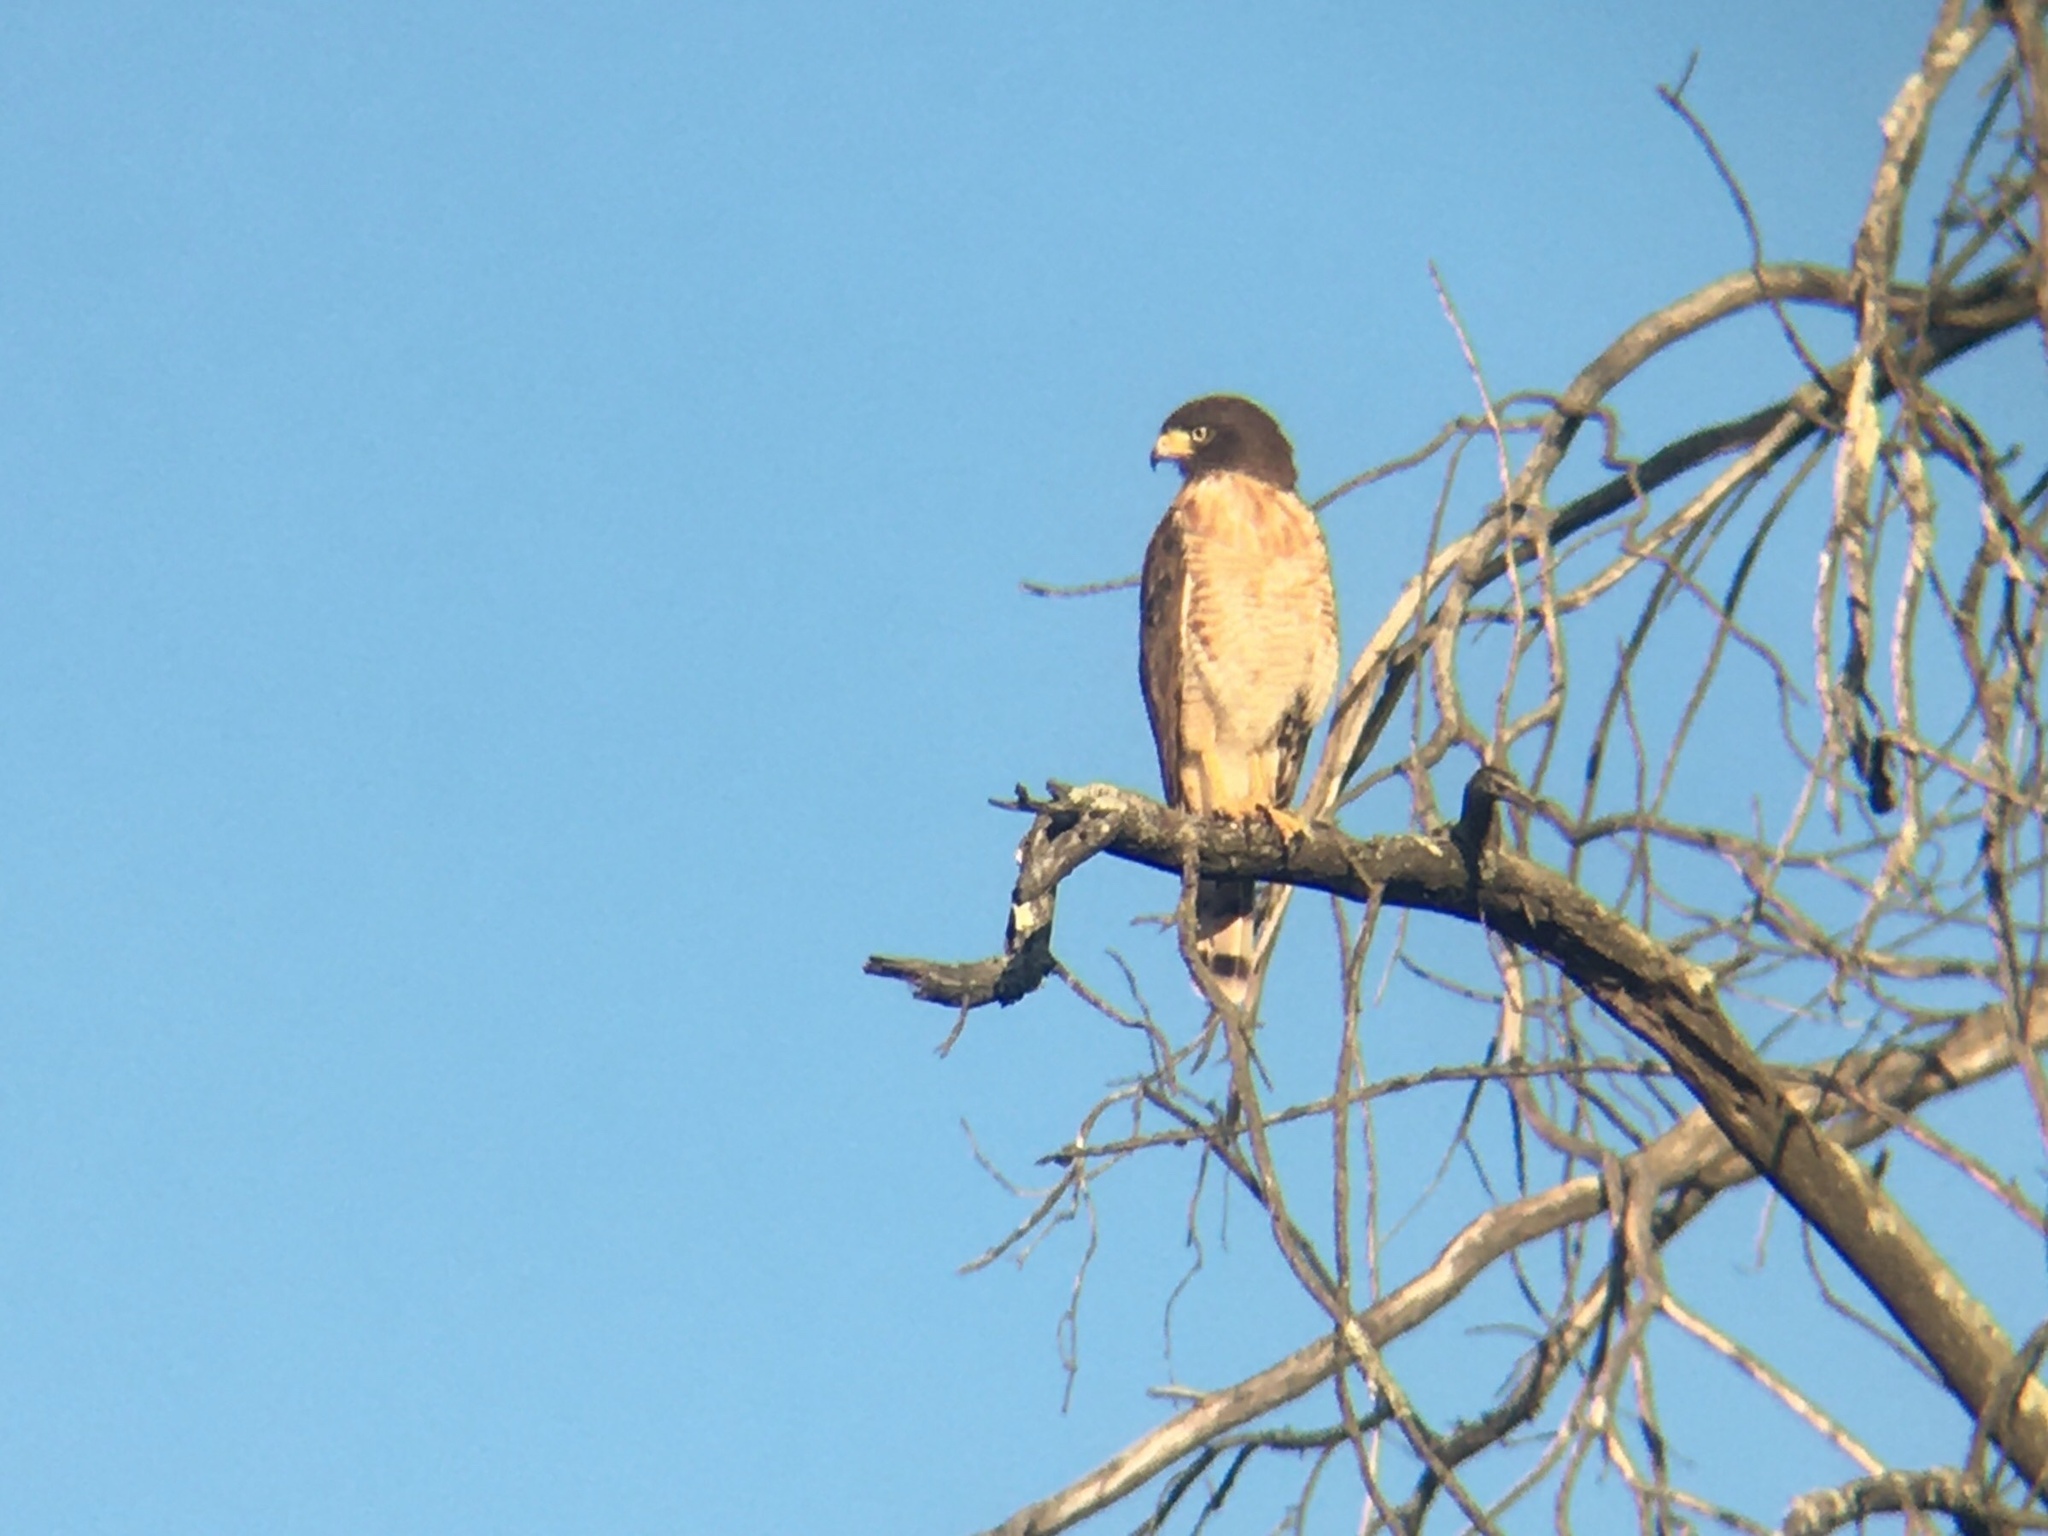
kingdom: Animalia
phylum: Chordata
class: Aves
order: Accipitriformes
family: Accipitridae
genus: Rupornis
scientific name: Rupornis magnirostris
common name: Roadside hawk
